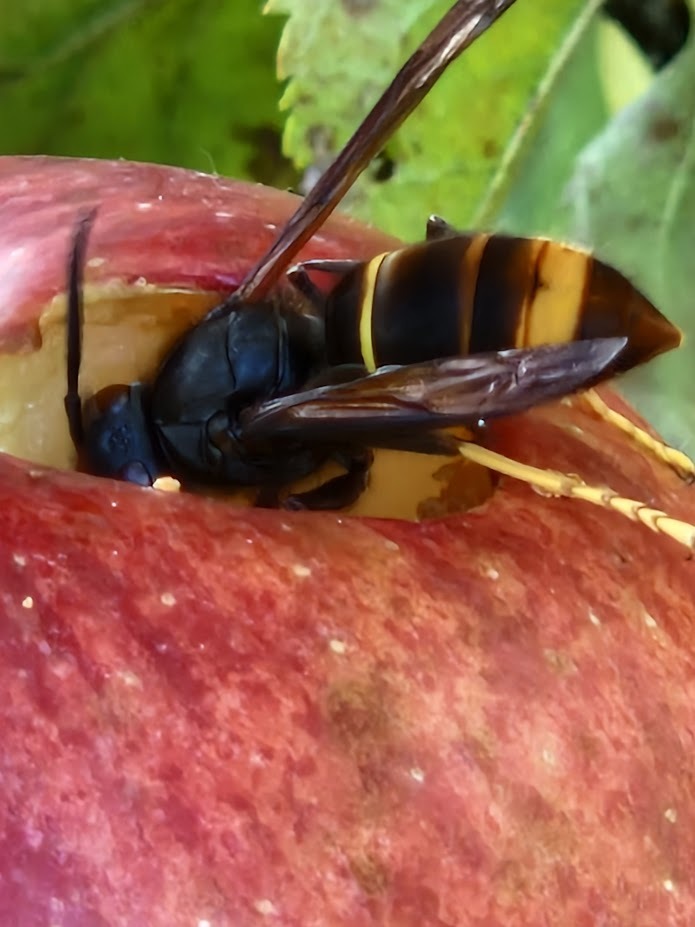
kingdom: Animalia
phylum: Arthropoda
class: Insecta
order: Hymenoptera
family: Vespidae
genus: Vespa
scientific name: Vespa velutina
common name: Asian hornet
